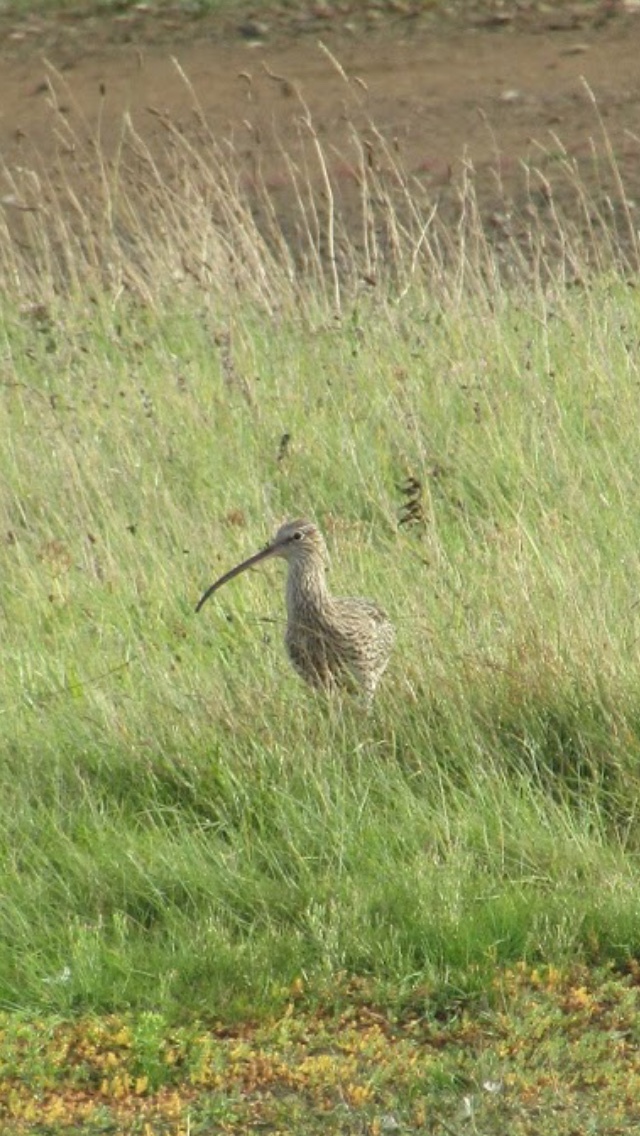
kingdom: Animalia
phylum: Chordata
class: Aves
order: Charadriiformes
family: Scolopacidae
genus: Numenius
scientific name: Numenius arquata
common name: Eurasian curlew
